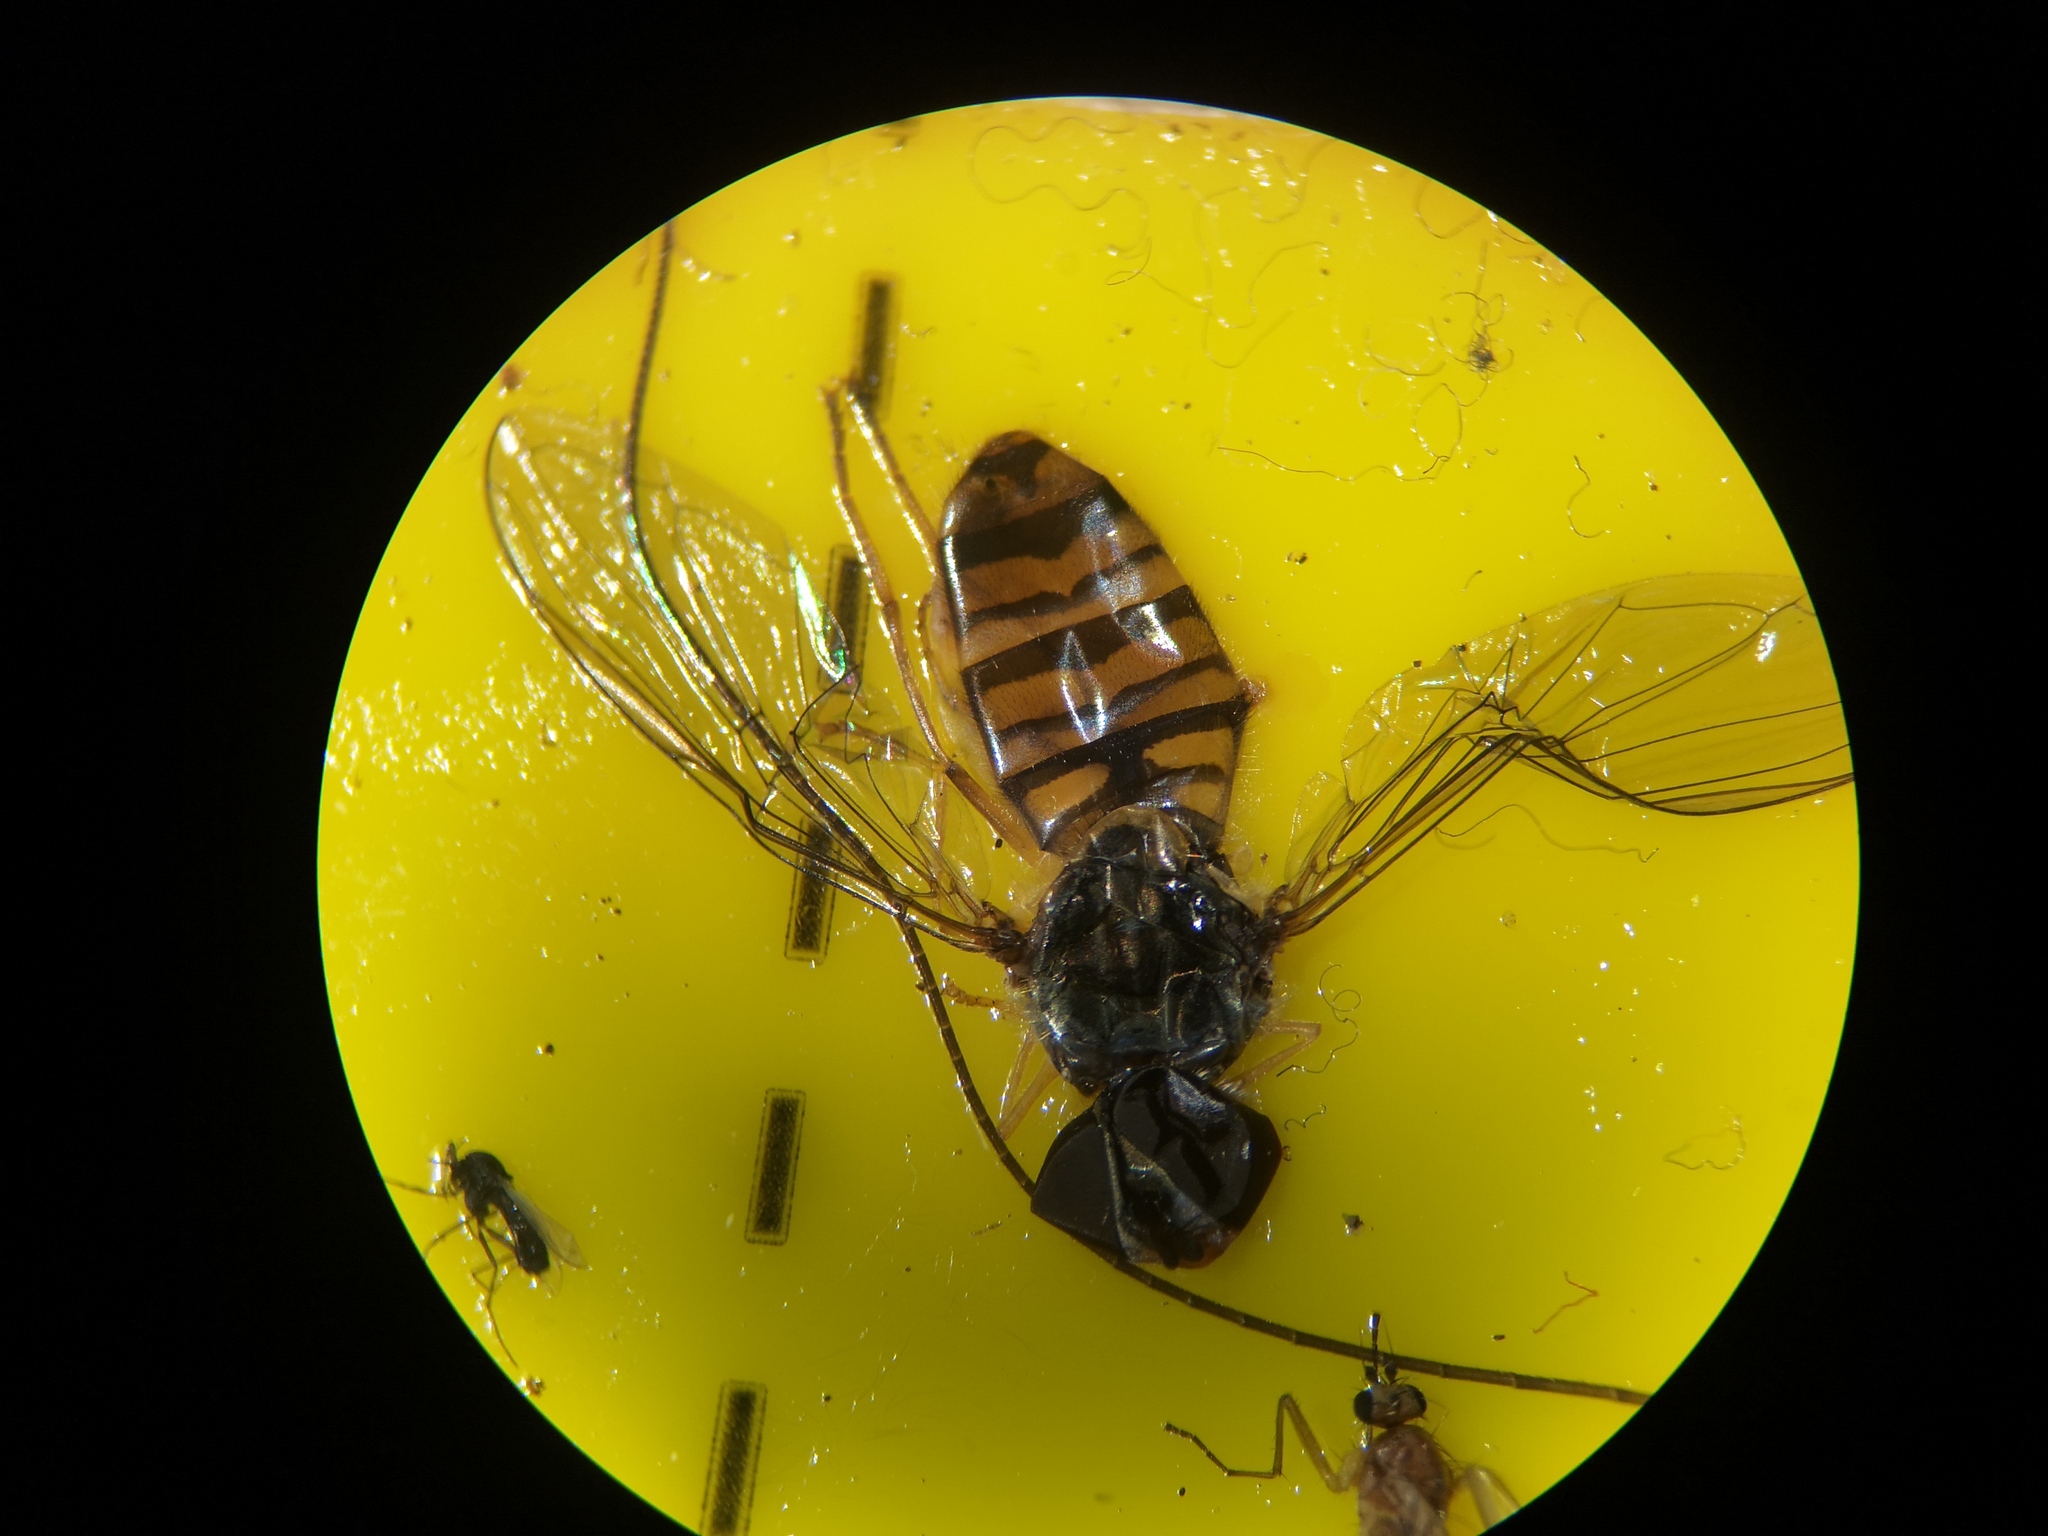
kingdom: Animalia
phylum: Arthropoda
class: Insecta
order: Diptera
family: Syrphidae
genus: Episyrphus
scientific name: Episyrphus balteatus
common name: Marmalade hoverfly
